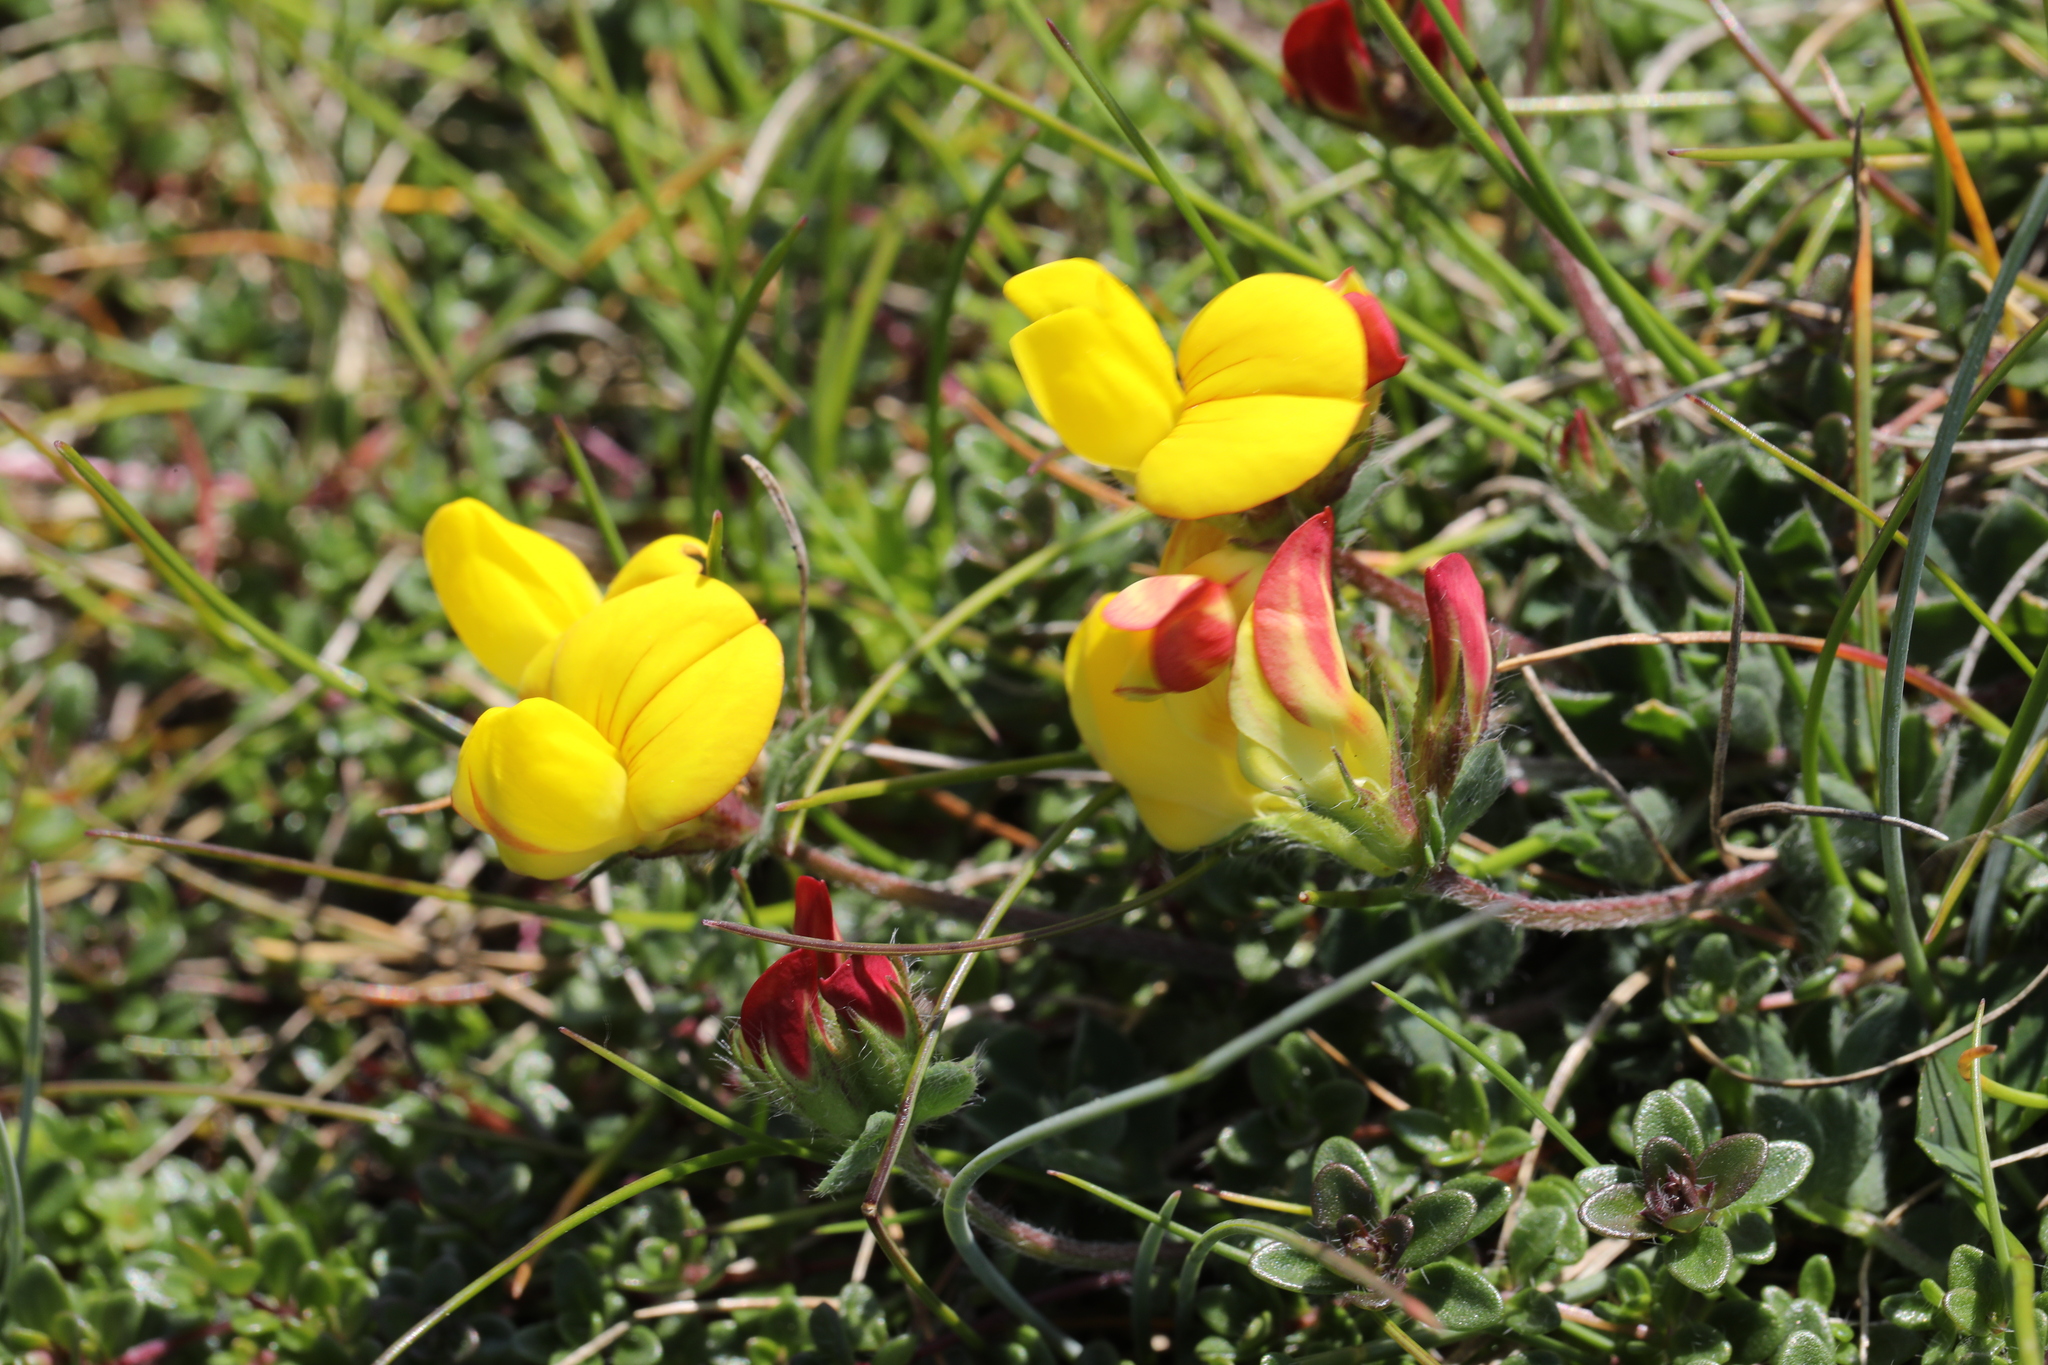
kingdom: Plantae
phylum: Tracheophyta
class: Magnoliopsida
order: Fabales
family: Fabaceae
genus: Lotus
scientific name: Lotus corniculatus
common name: Common bird's-foot-trefoil
